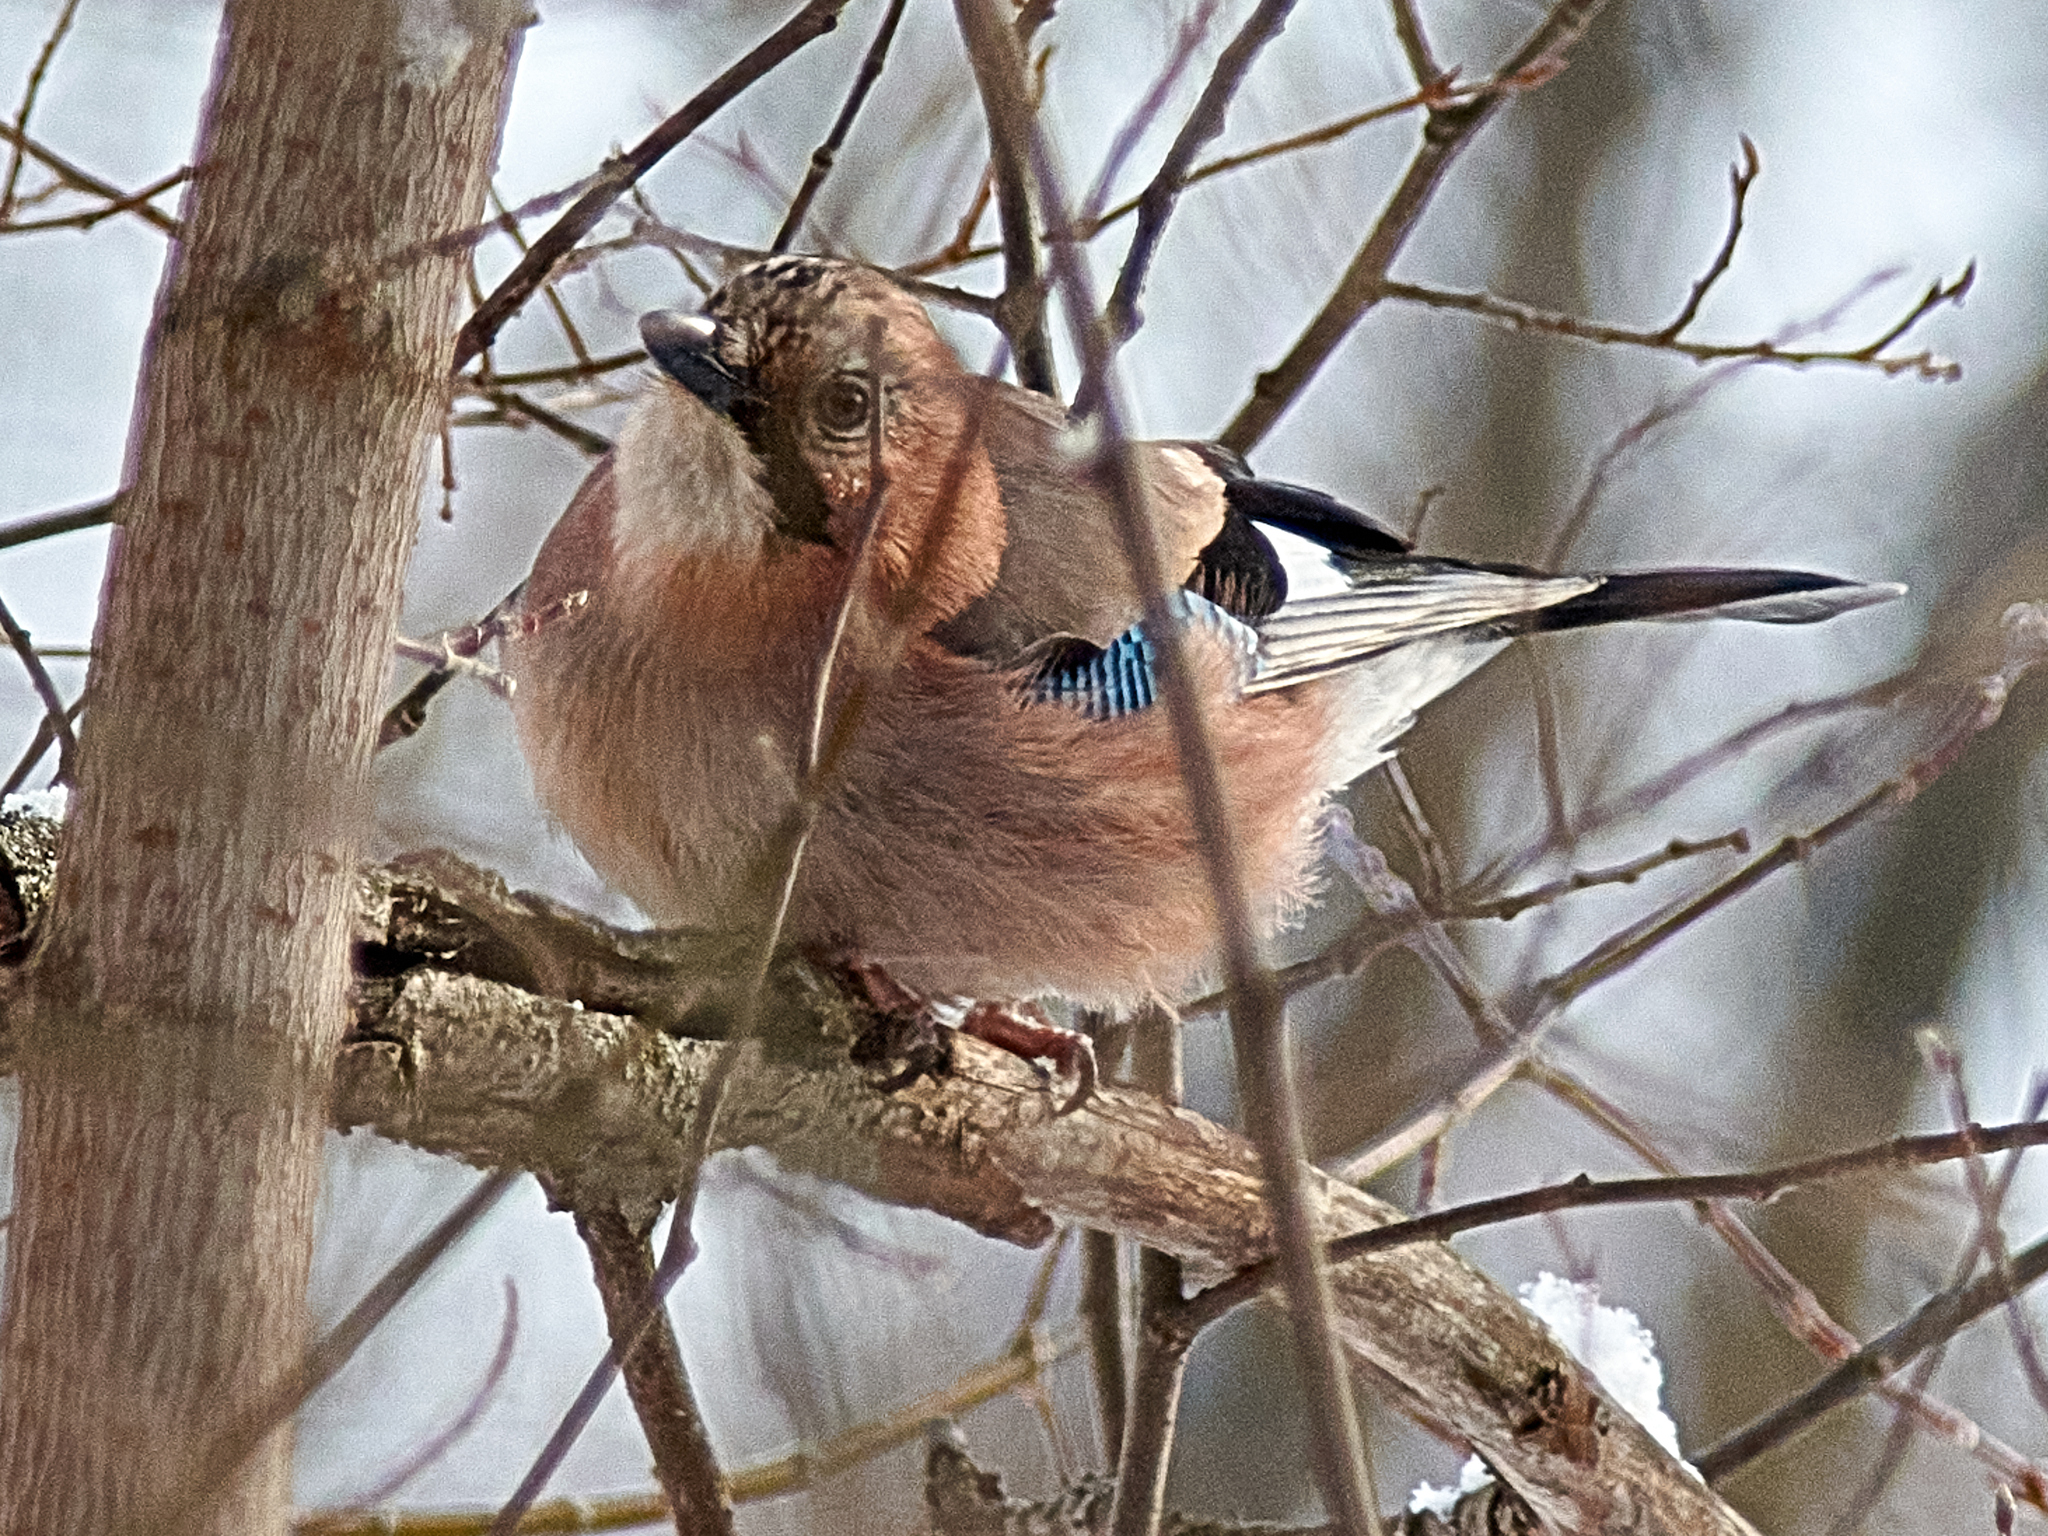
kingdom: Animalia
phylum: Chordata
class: Aves
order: Passeriformes
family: Corvidae
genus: Garrulus
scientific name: Garrulus glandarius
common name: Eurasian jay
